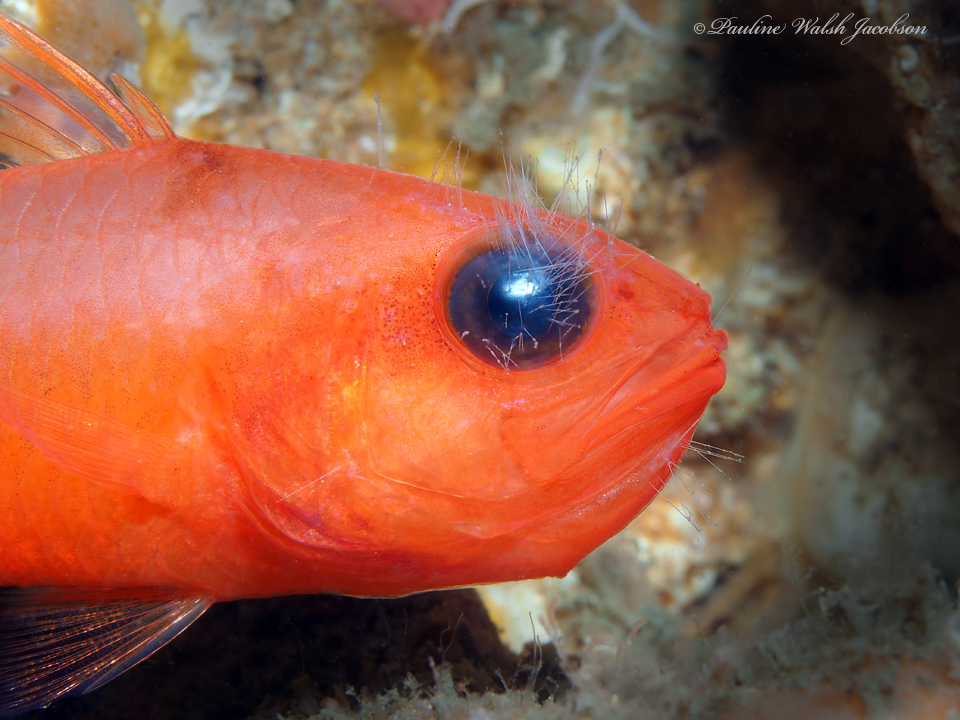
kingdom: Animalia
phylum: Chordata
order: Perciformes
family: Apogonidae
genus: Apogon
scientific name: Apogon binotatus
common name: Barred cardinalfish
